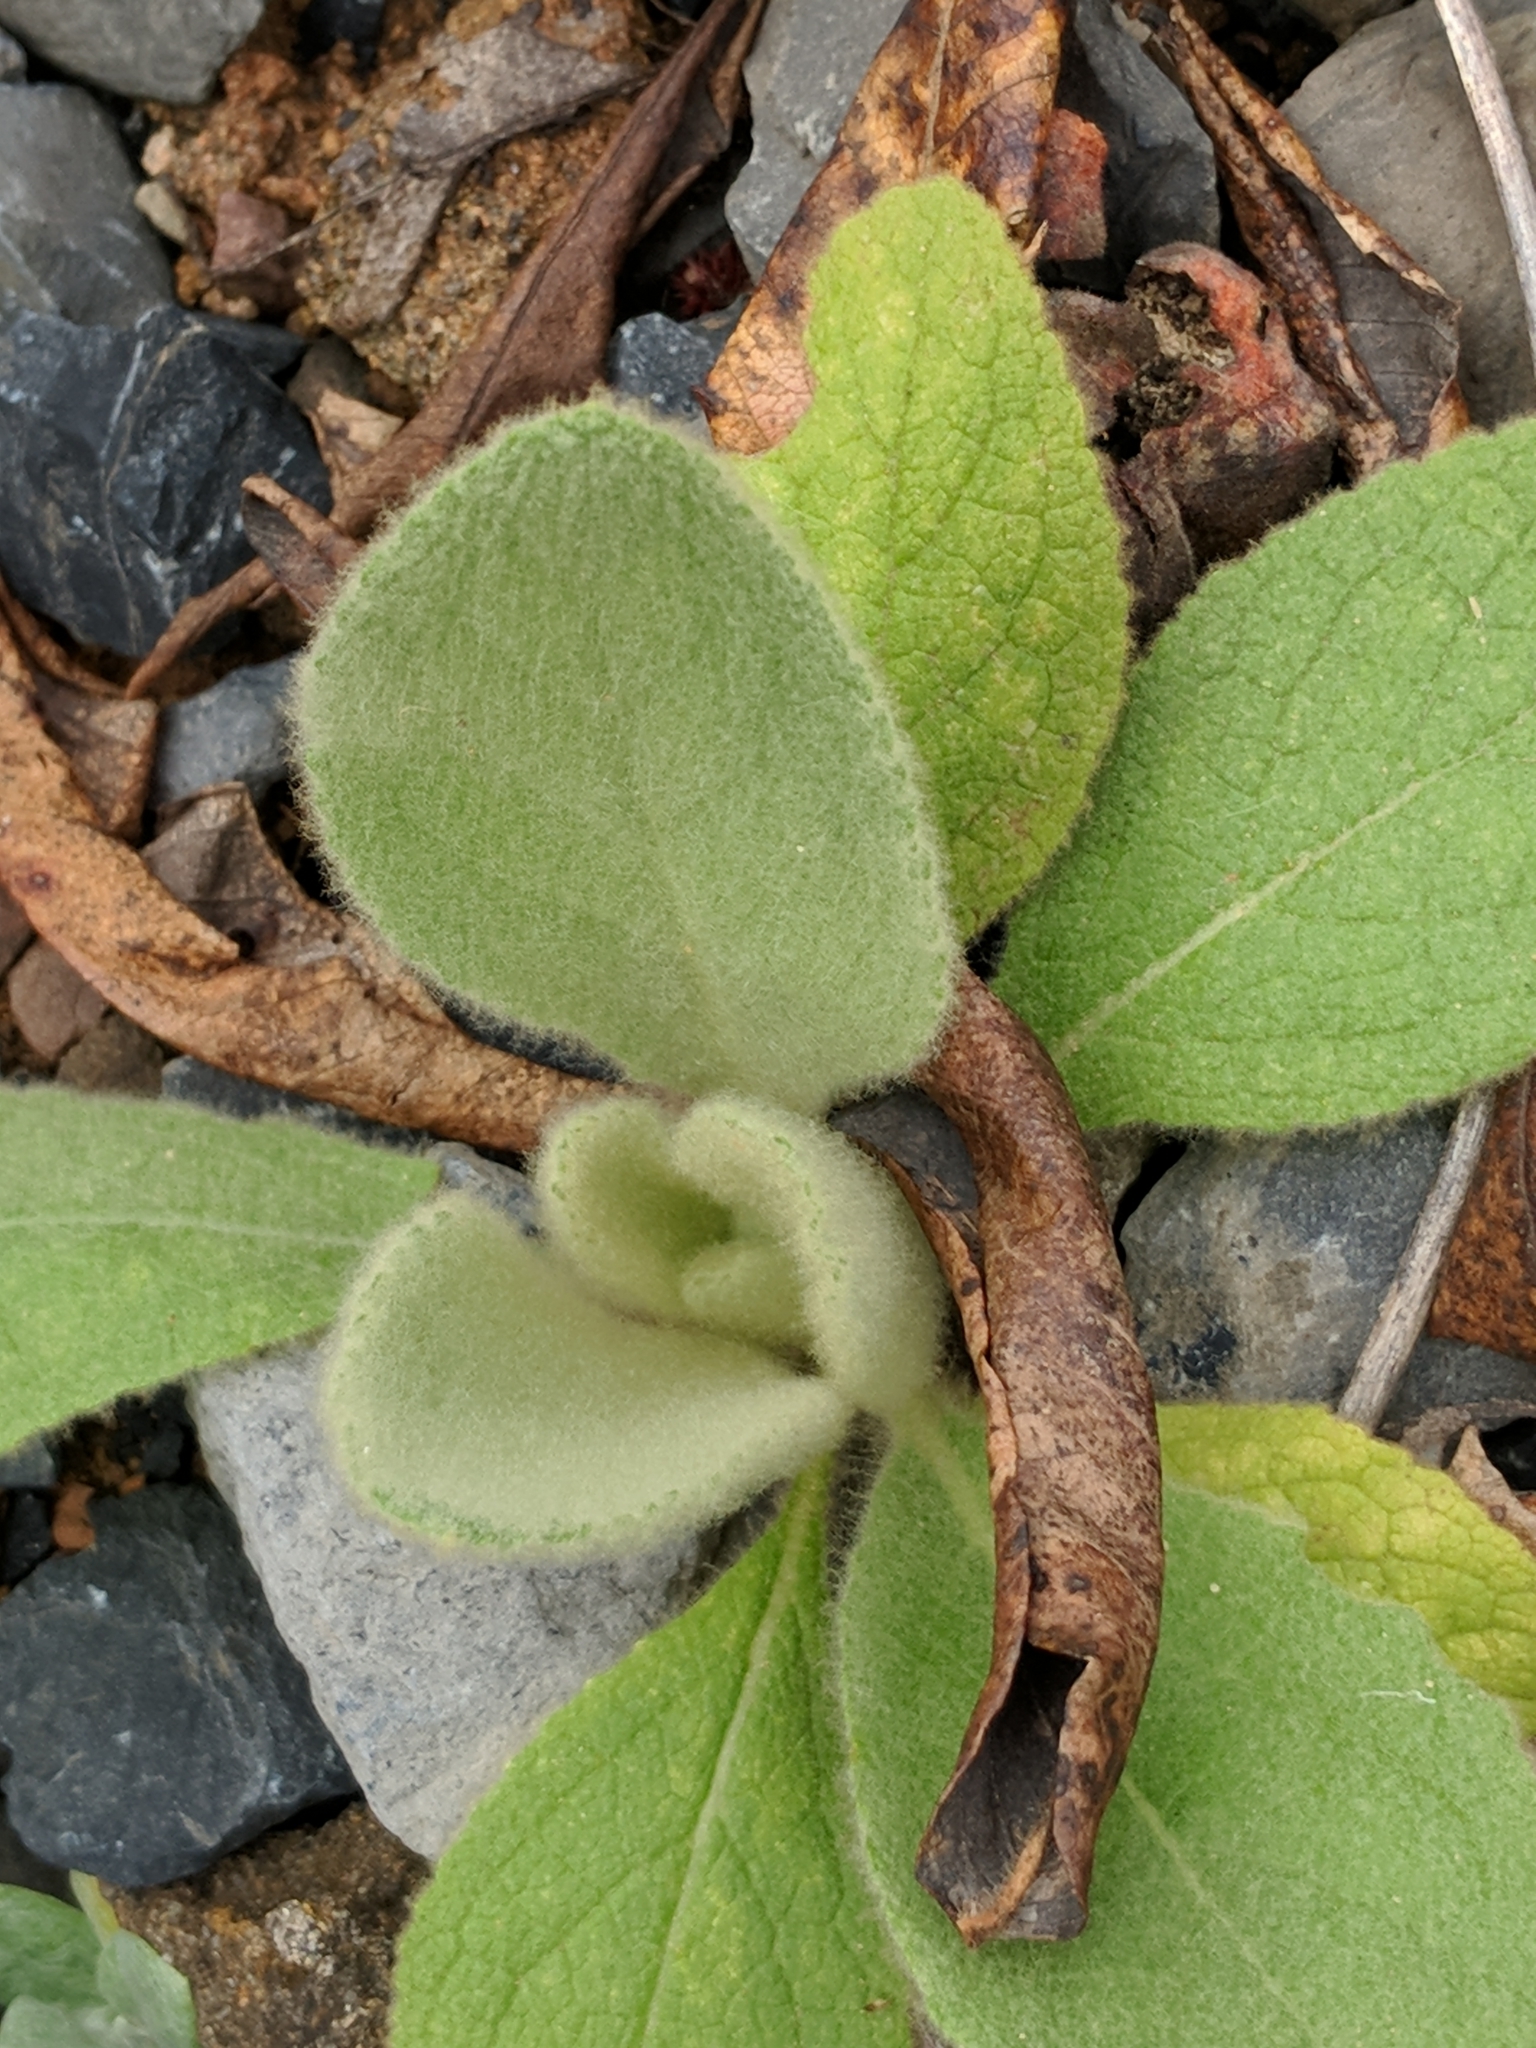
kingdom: Plantae
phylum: Tracheophyta
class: Magnoliopsida
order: Lamiales
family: Scrophulariaceae
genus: Verbascum
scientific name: Verbascum thapsus
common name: Common mullein
